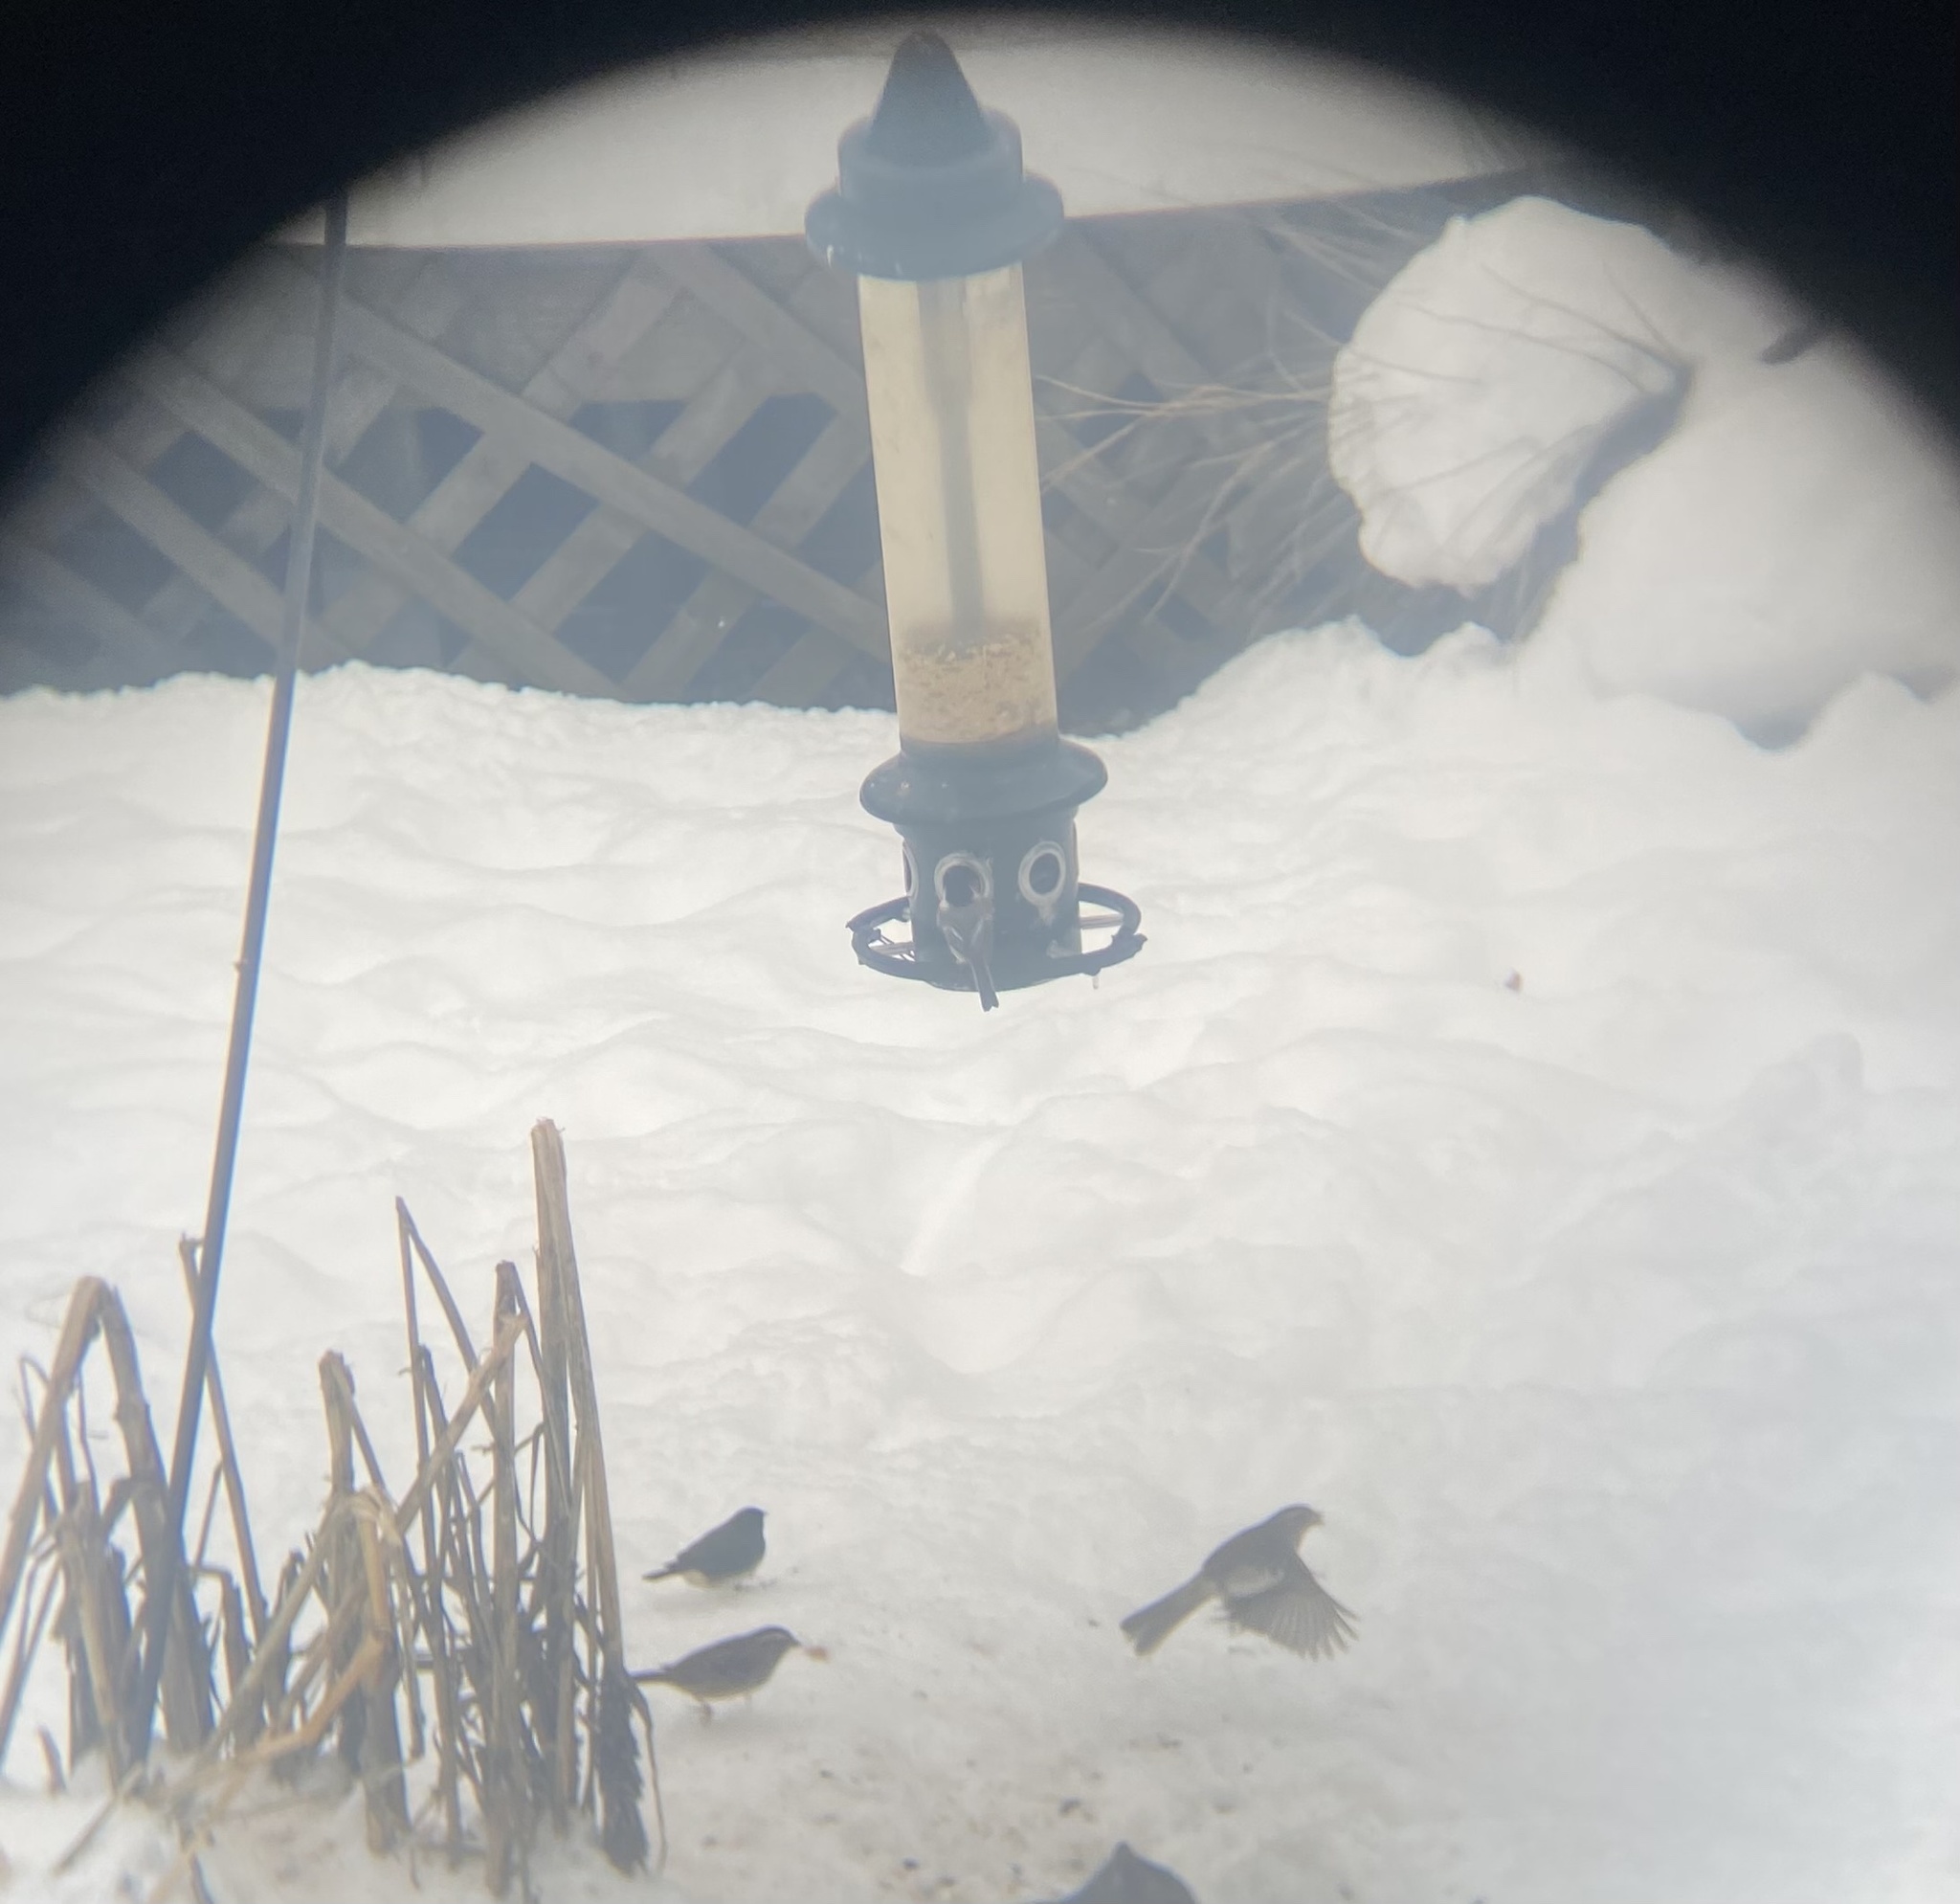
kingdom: Animalia
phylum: Chordata
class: Aves
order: Passeriformes
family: Paridae
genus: Poecile
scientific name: Poecile atricapillus
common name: Black-capped chickadee
